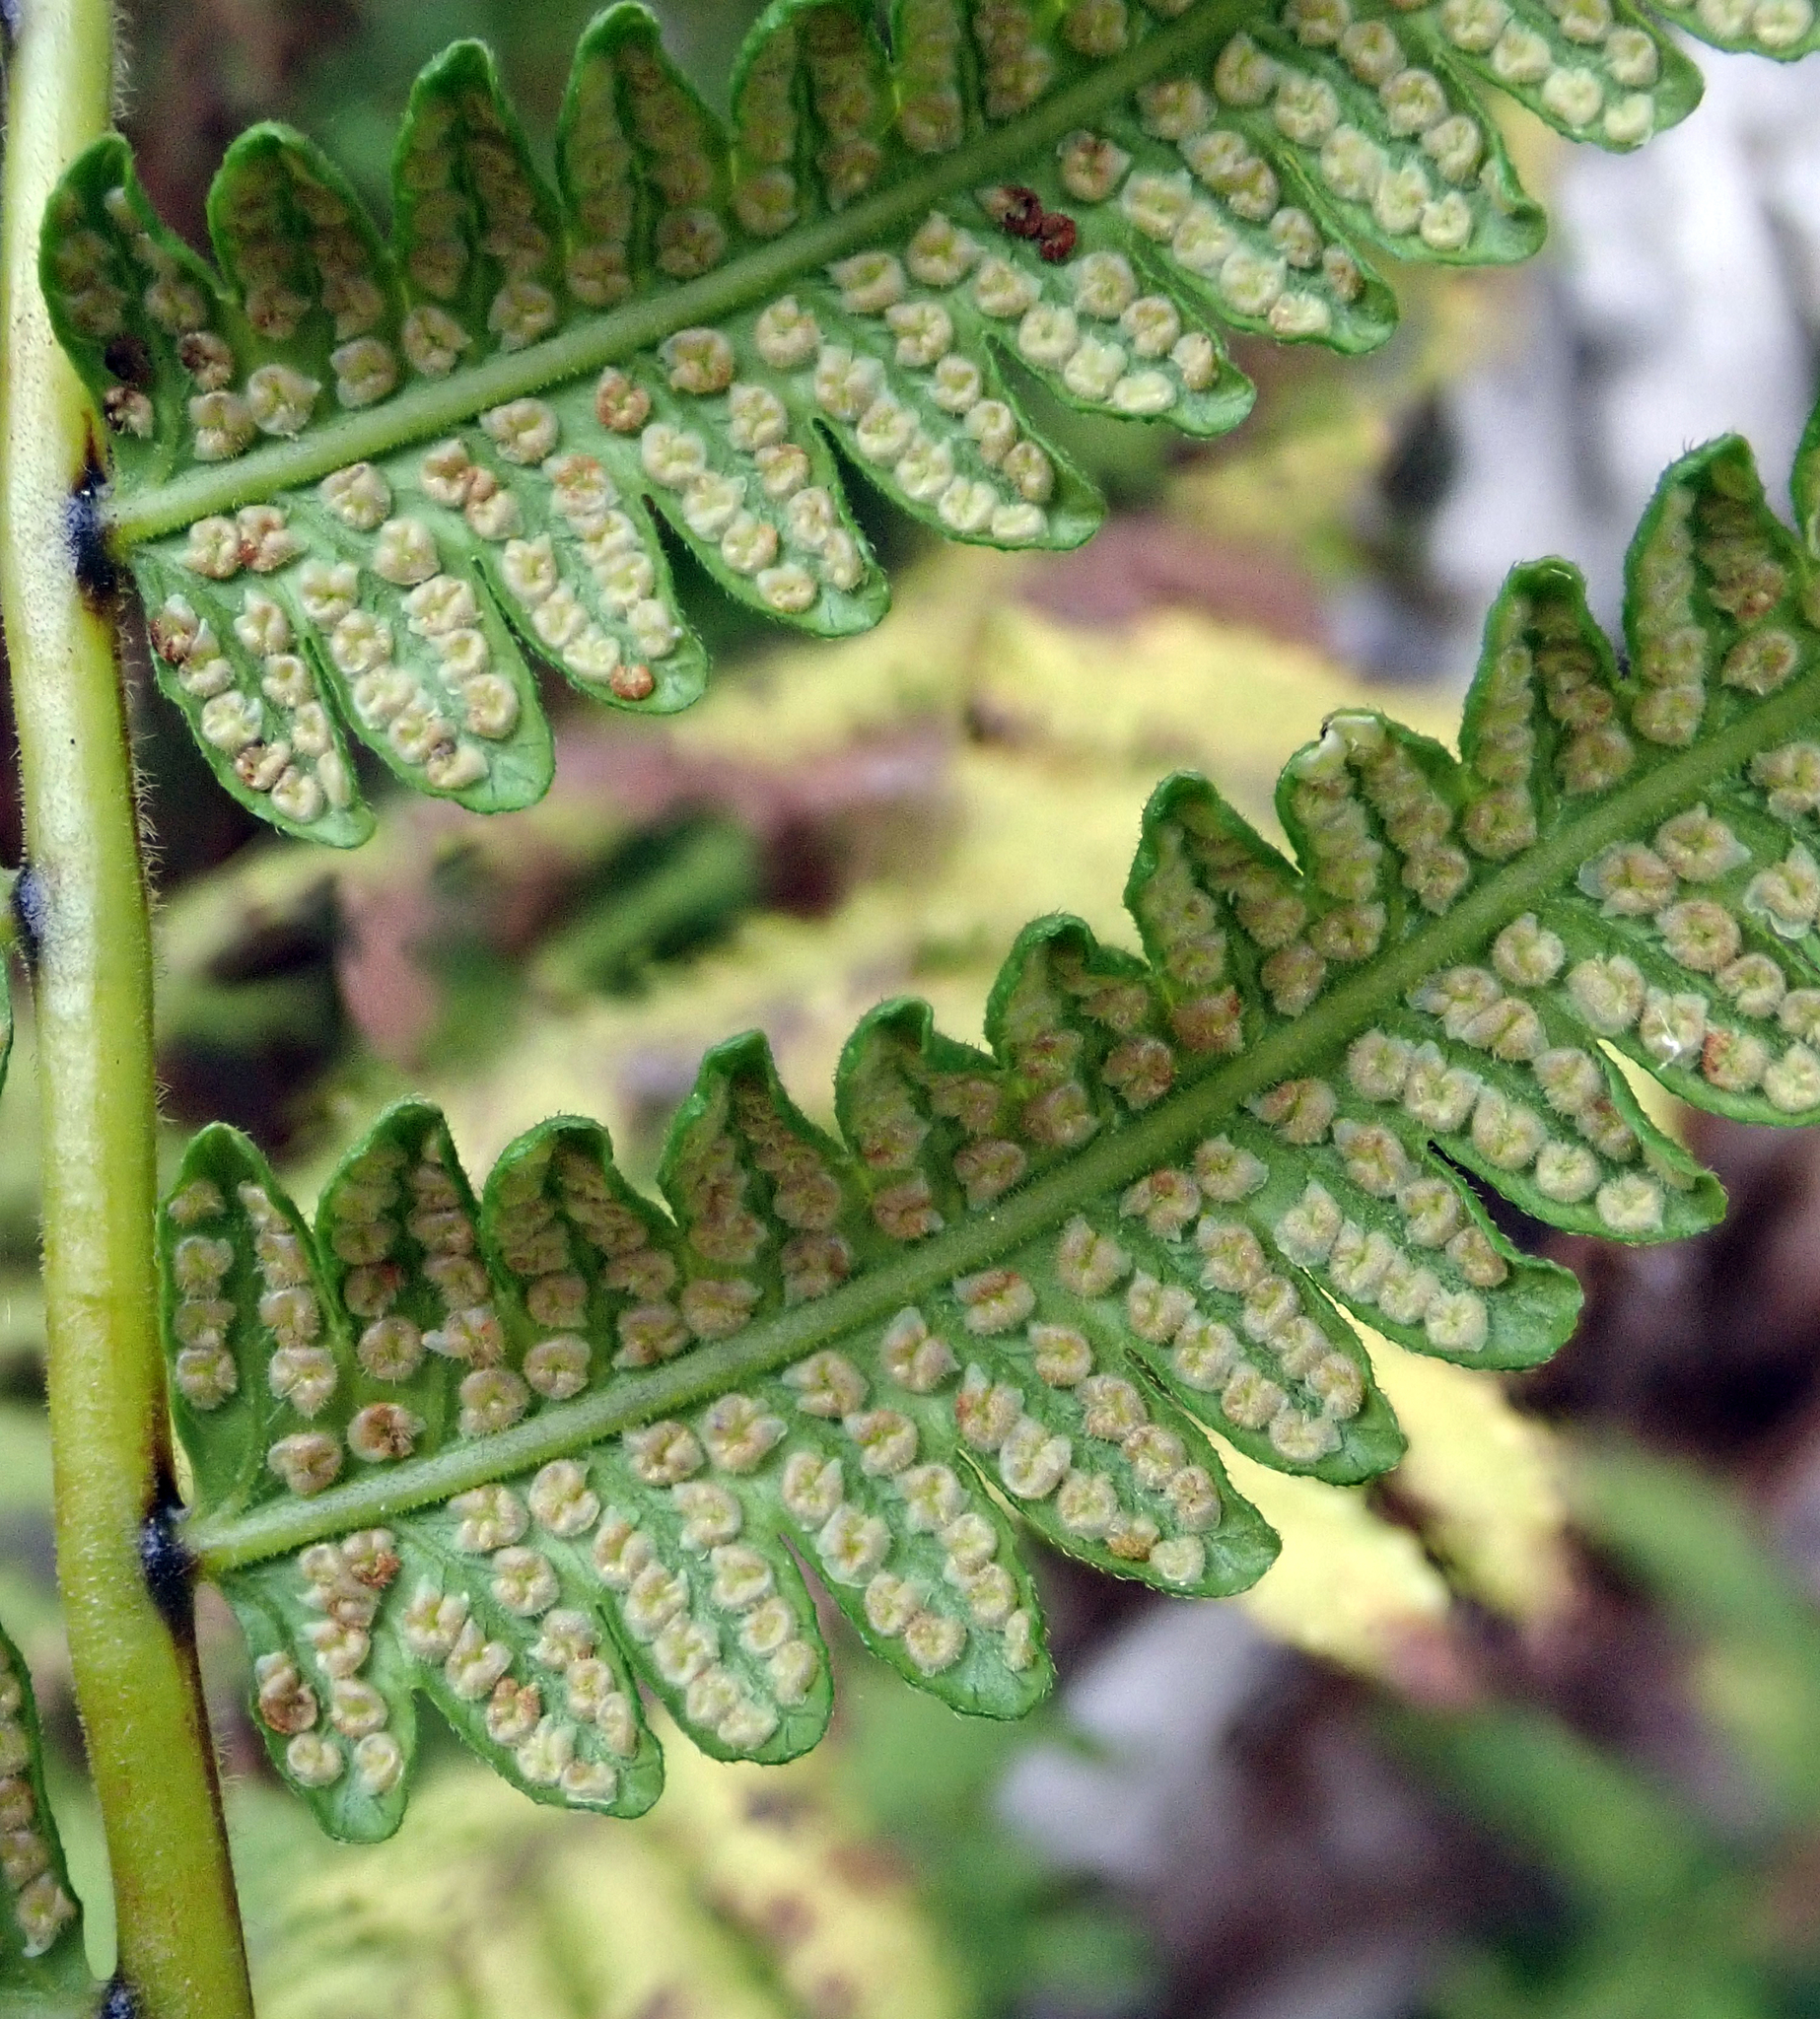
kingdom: Plantae
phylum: Tracheophyta
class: Polypodiopsida
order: Polypodiales
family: Thelypteridaceae
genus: Christella
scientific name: Christella dentata
